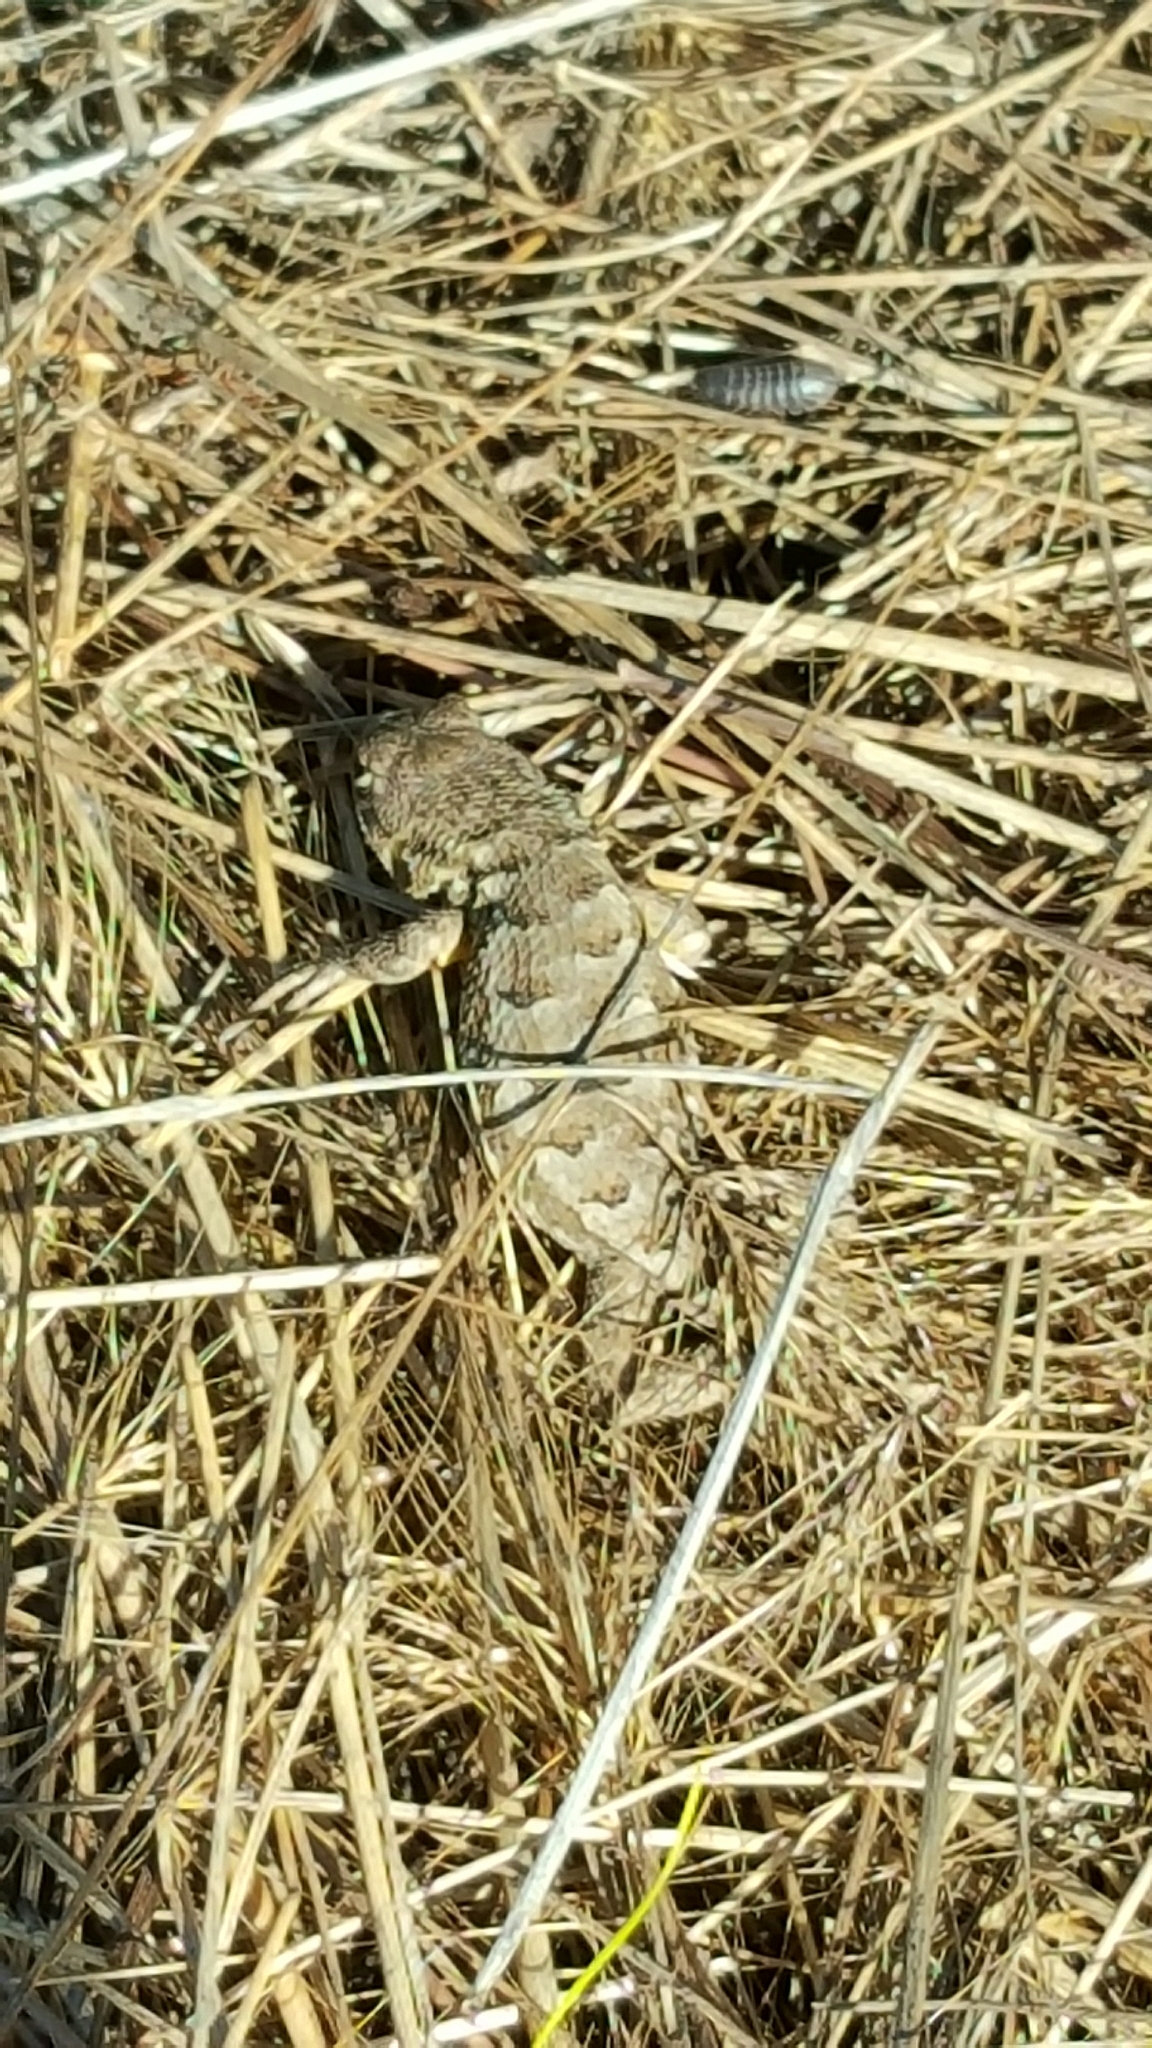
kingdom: Animalia
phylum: Chordata
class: Squamata
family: Phrynosomatidae
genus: Sceloporus
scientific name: Sceloporus occidentalis
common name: Western fence lizard
